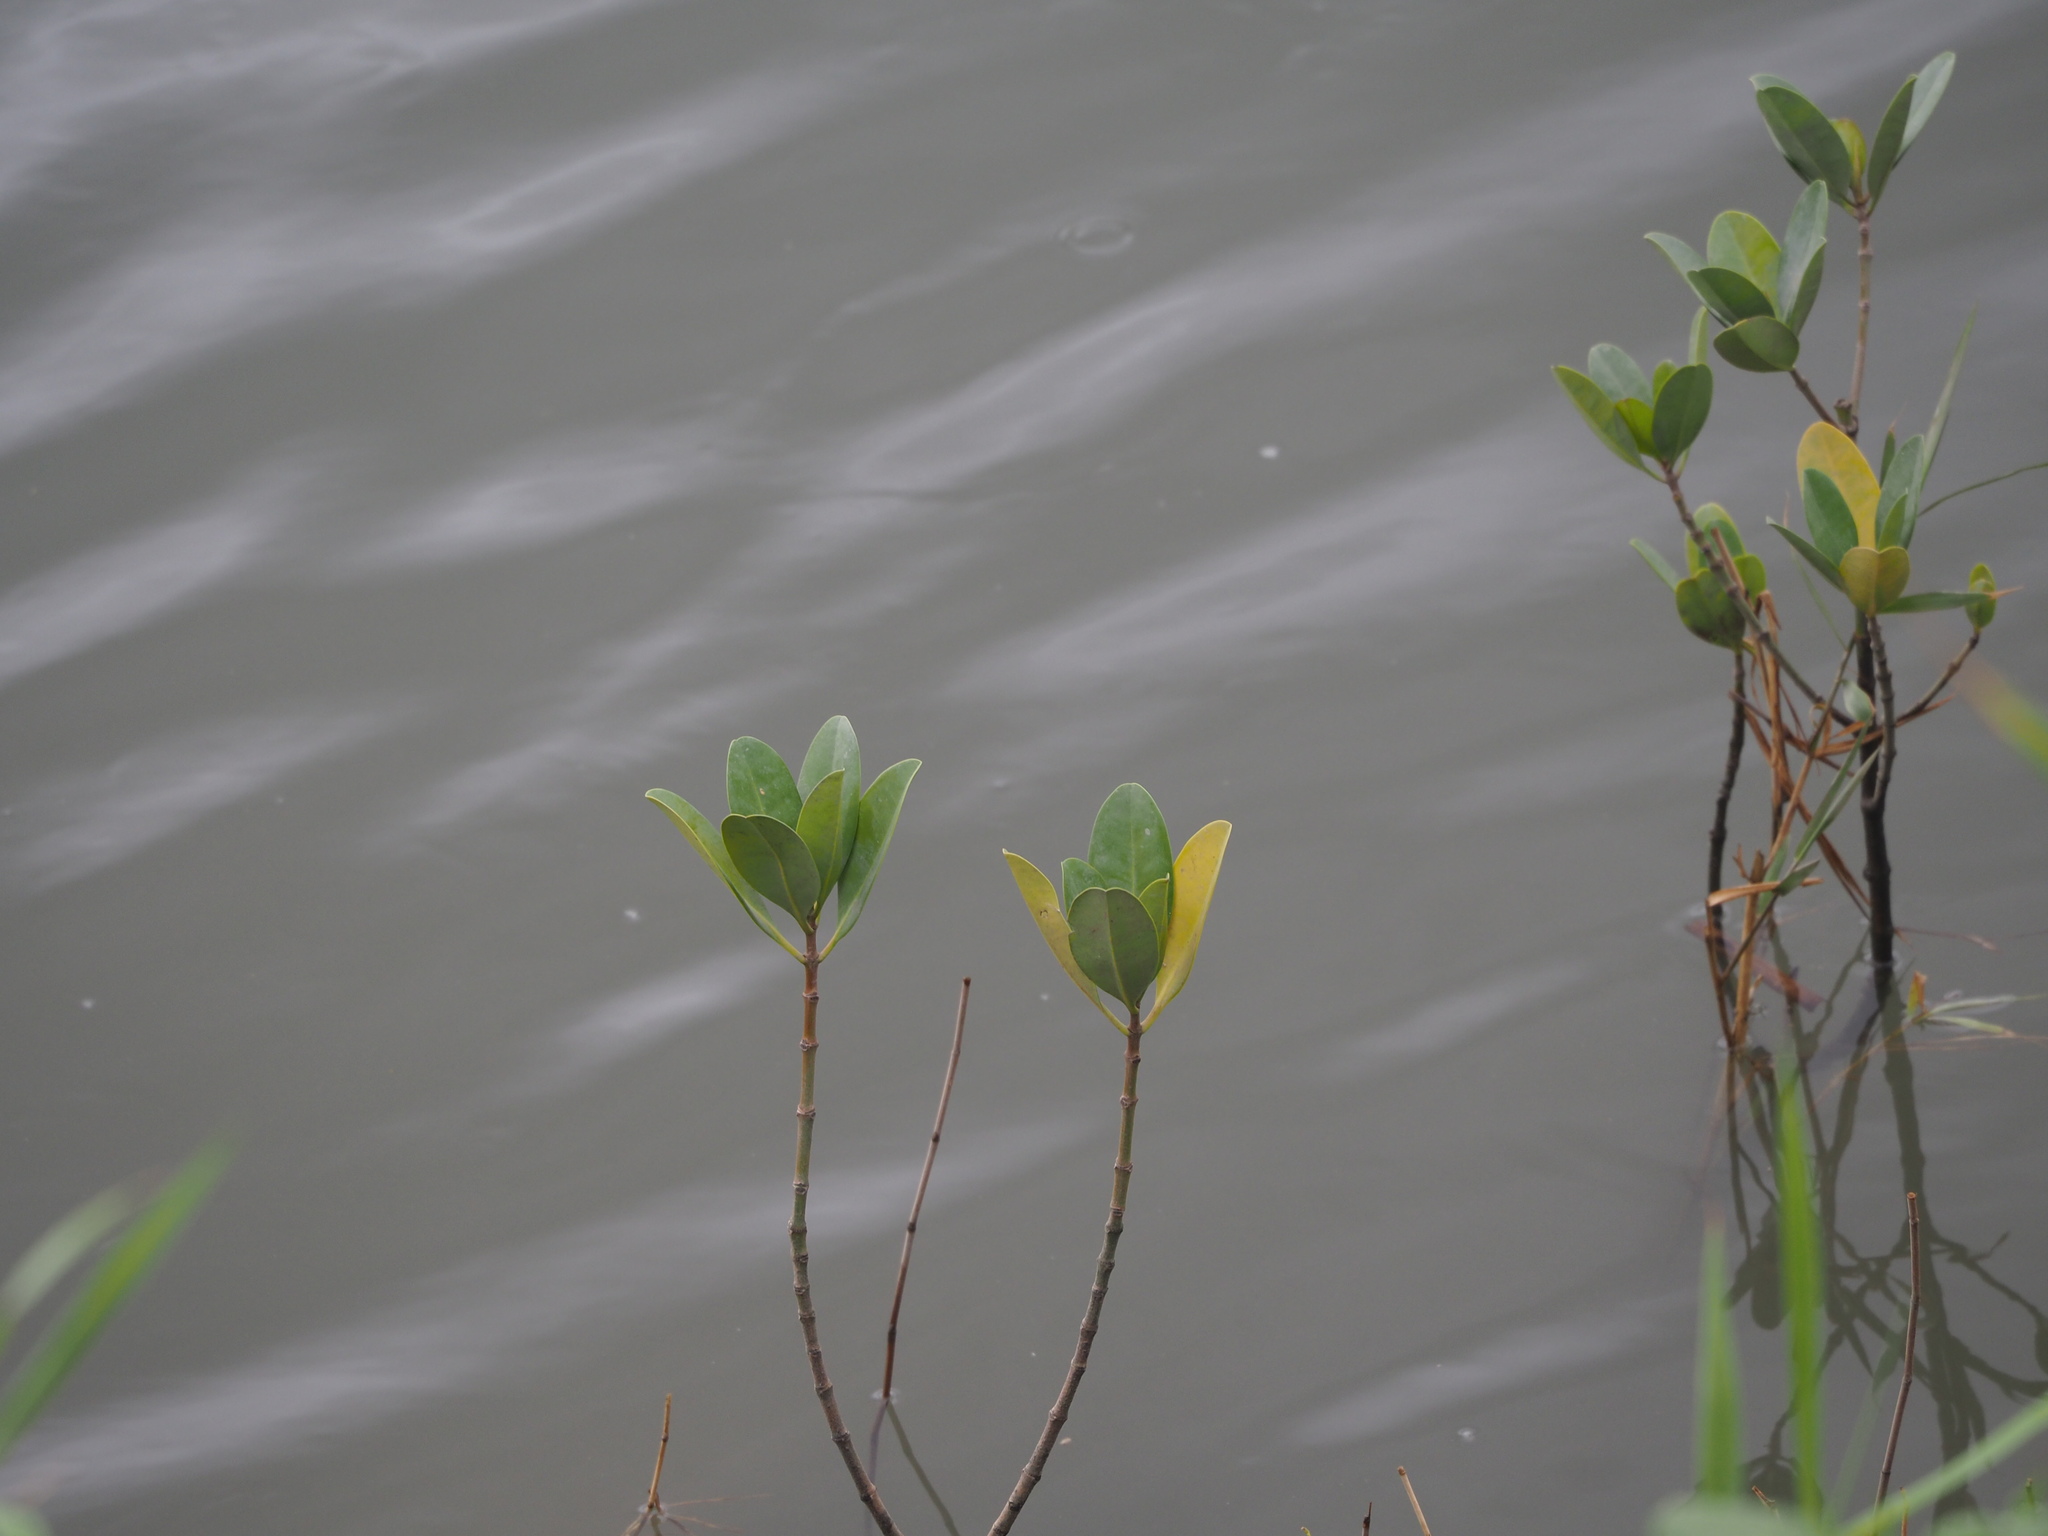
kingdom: Plantae
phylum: Tracheophyta
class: Magnoliopsida
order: Malpighiales
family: Rhizophoraceae
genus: Kandelia
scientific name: Kandelia obovata
